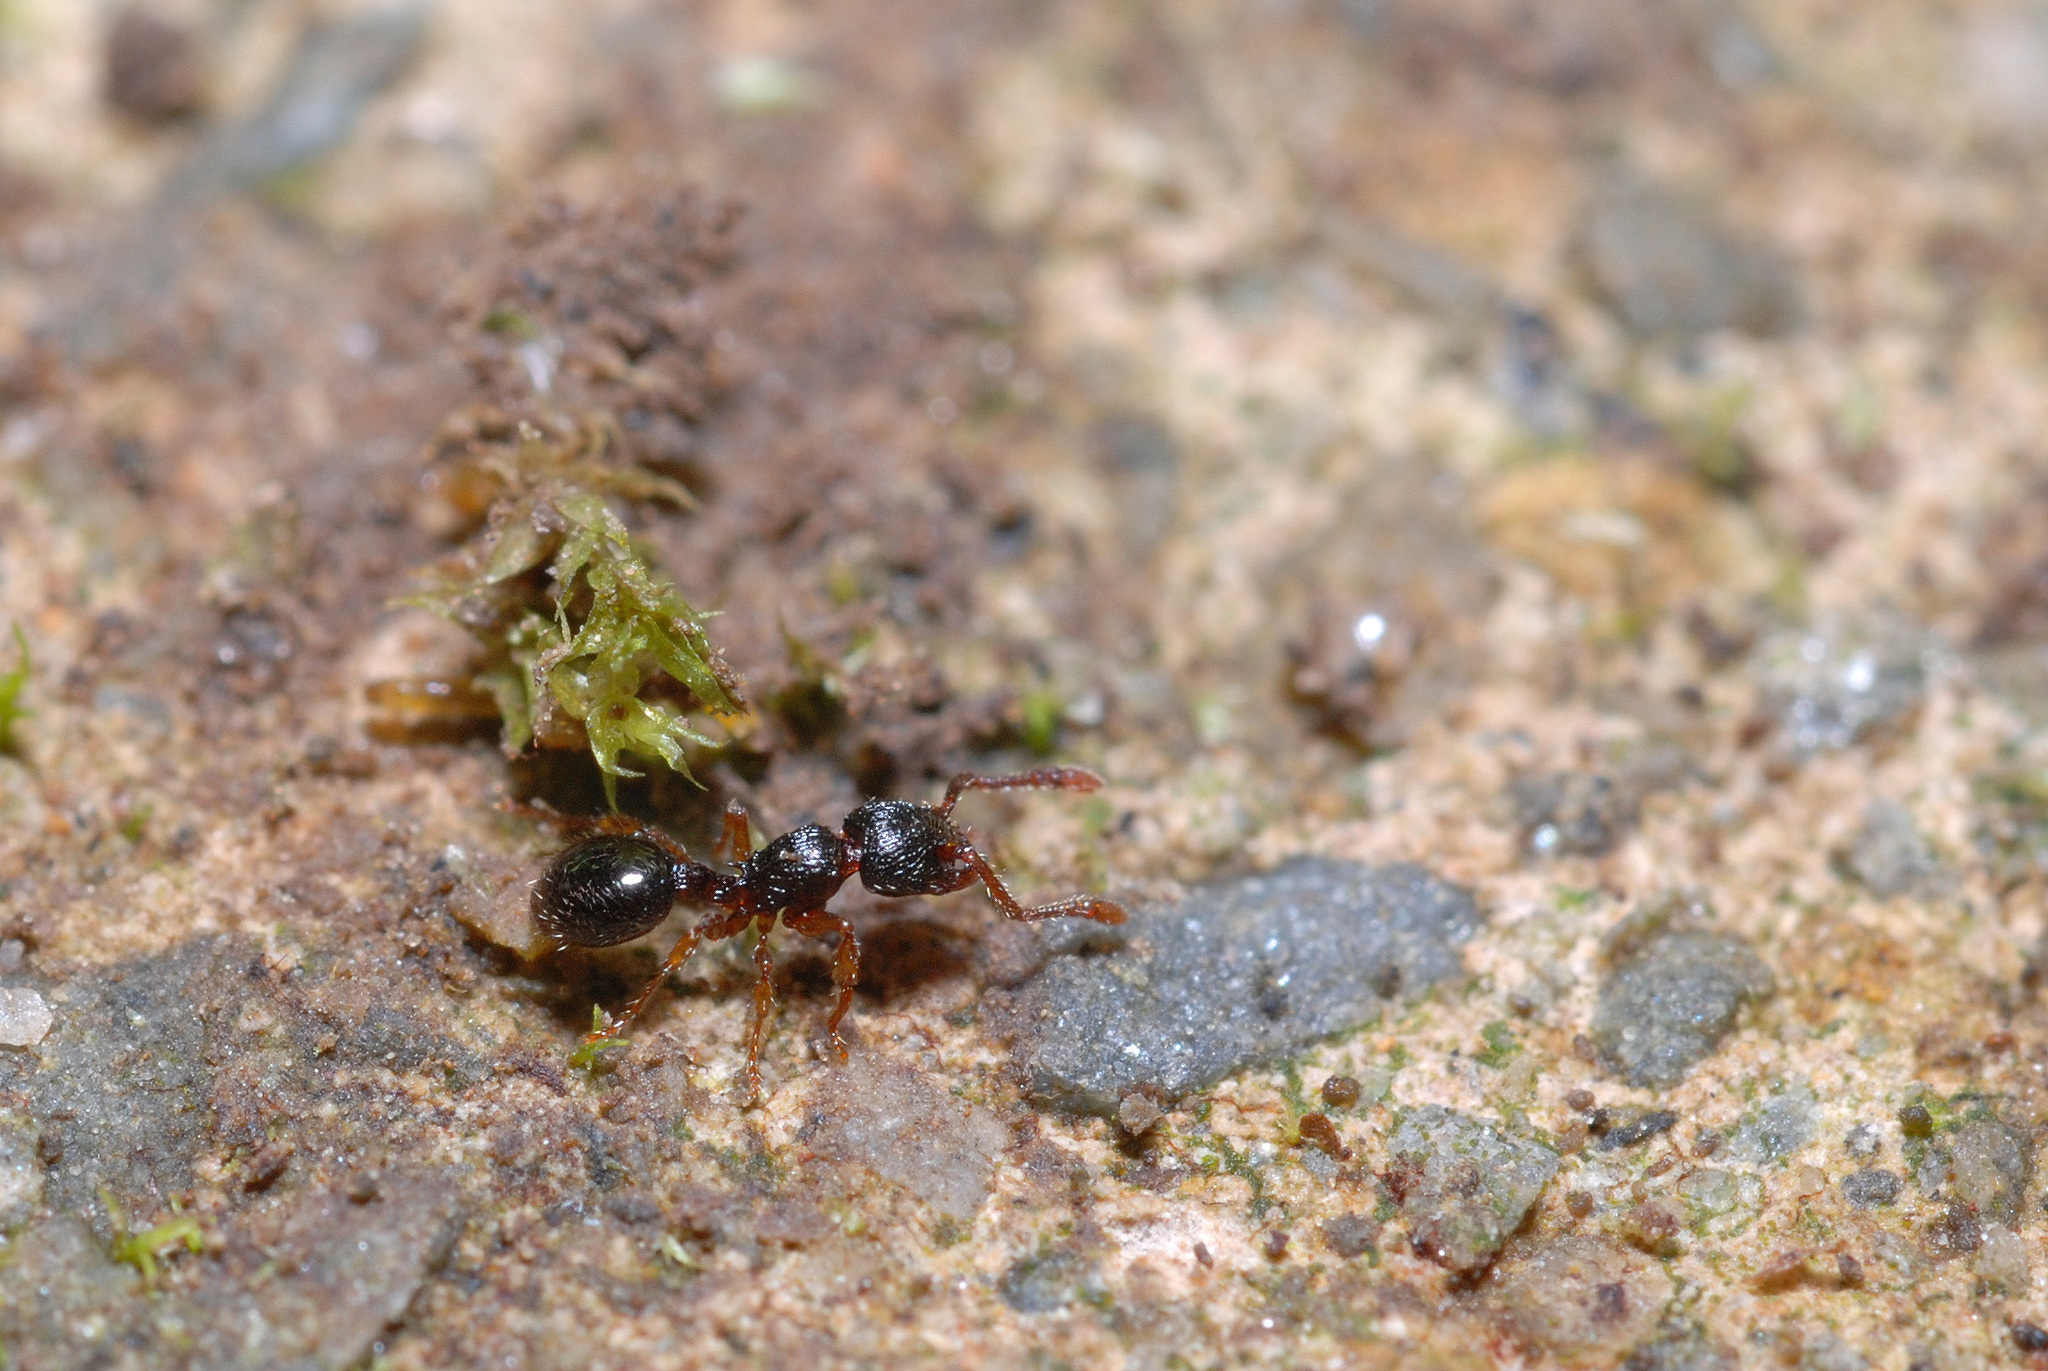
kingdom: Animalia
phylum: Arthropoda
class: Insecta
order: Hymenoptera
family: Formicidae
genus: Myrmecina
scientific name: Myrmecina graminicola
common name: Grass ant
